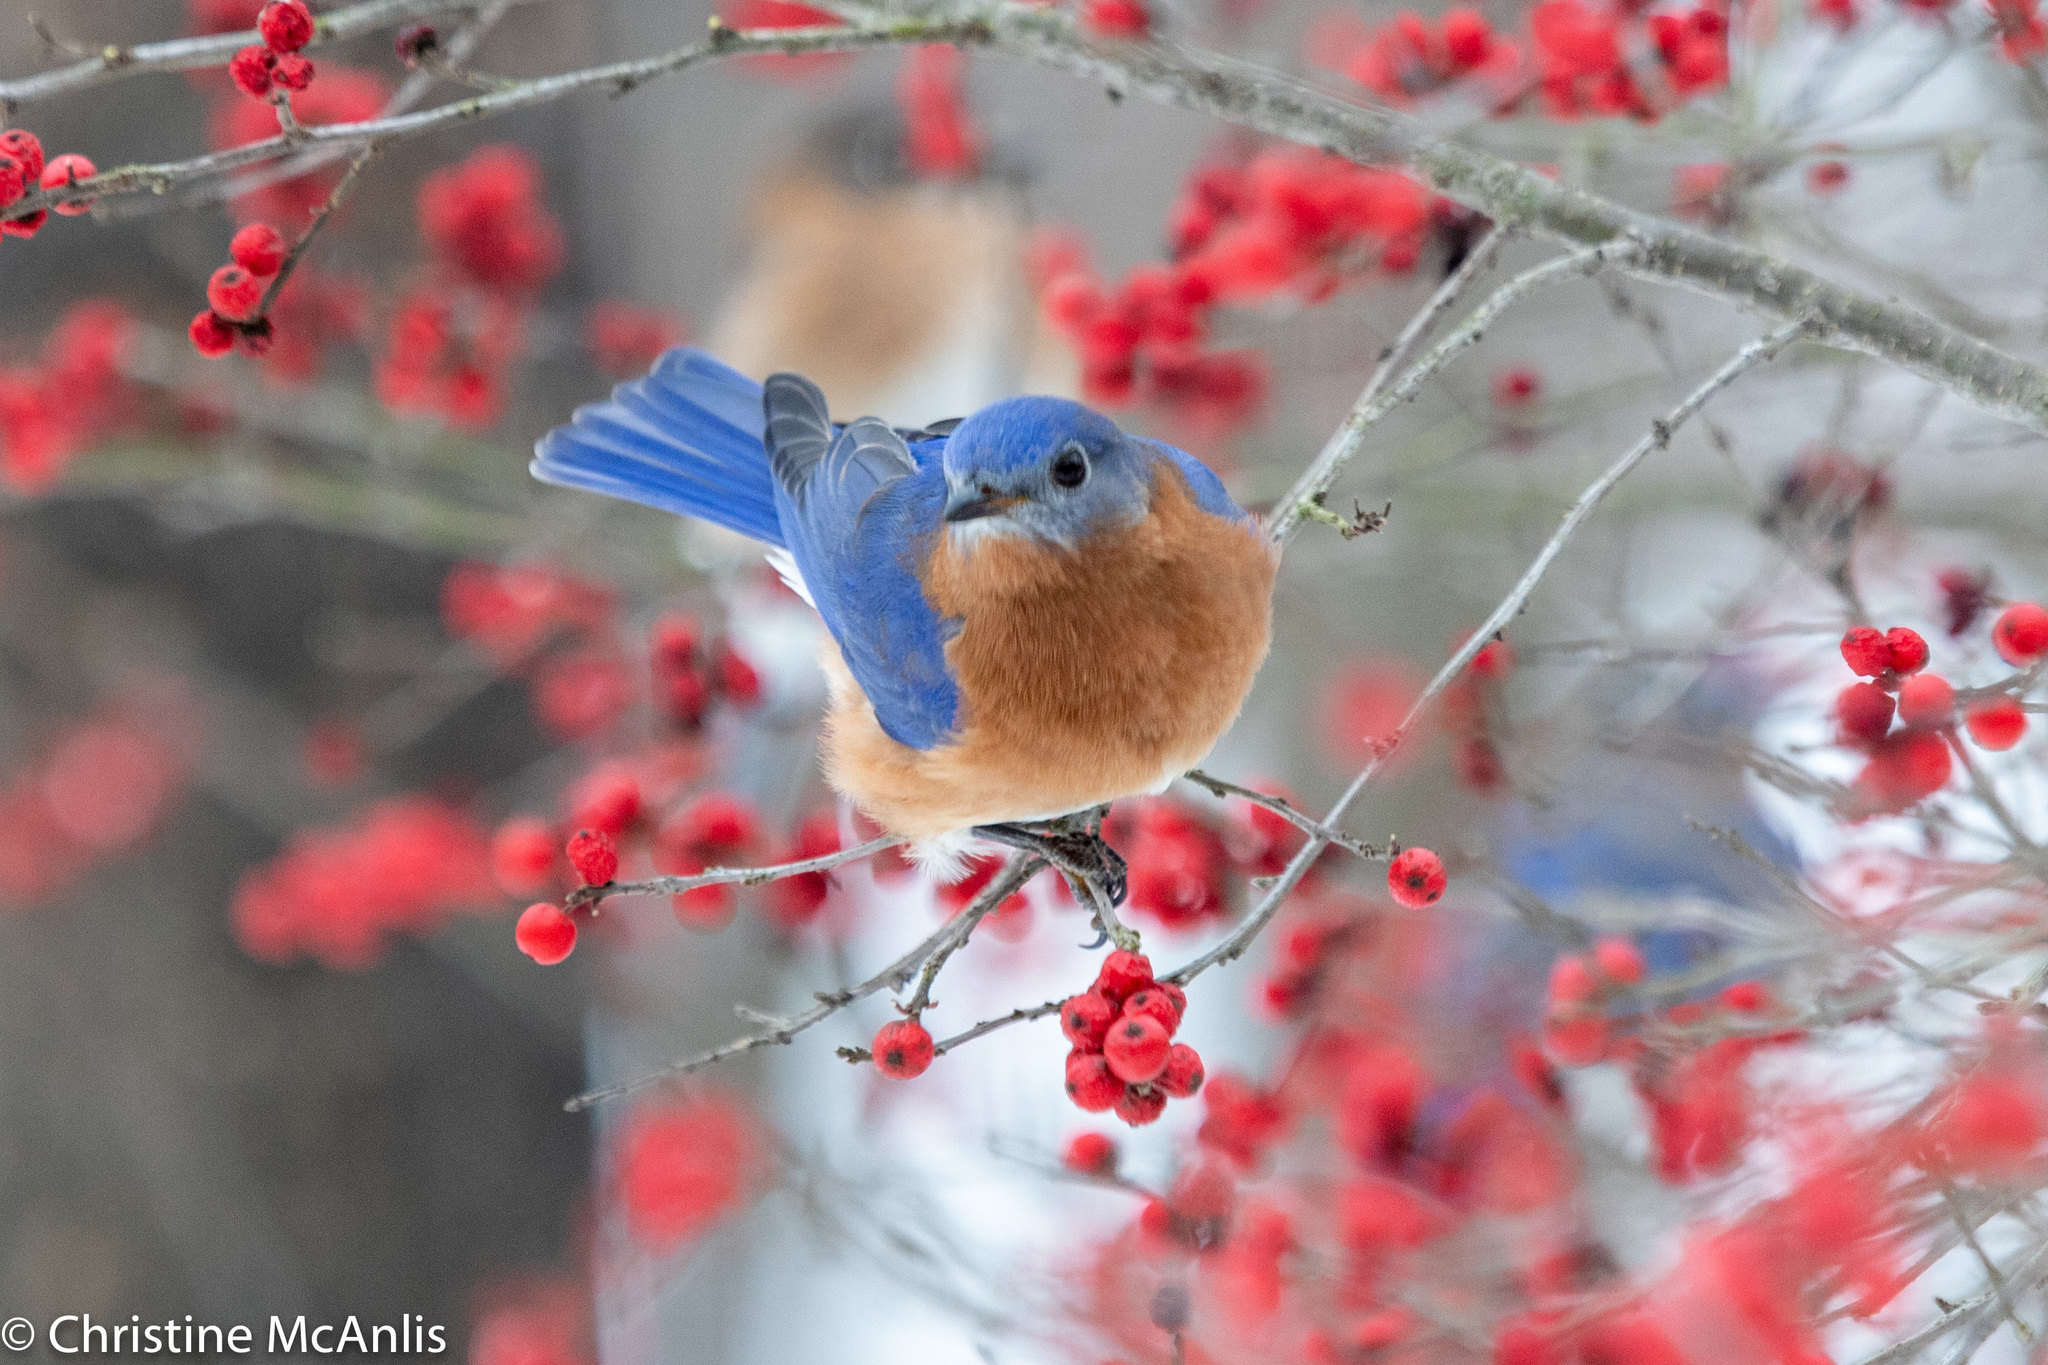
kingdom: Animalia
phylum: Chordata
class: Aves
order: Passeriformes
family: Turdidae
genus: Sialia
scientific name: Sialia sialis
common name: Eastern bluebird
